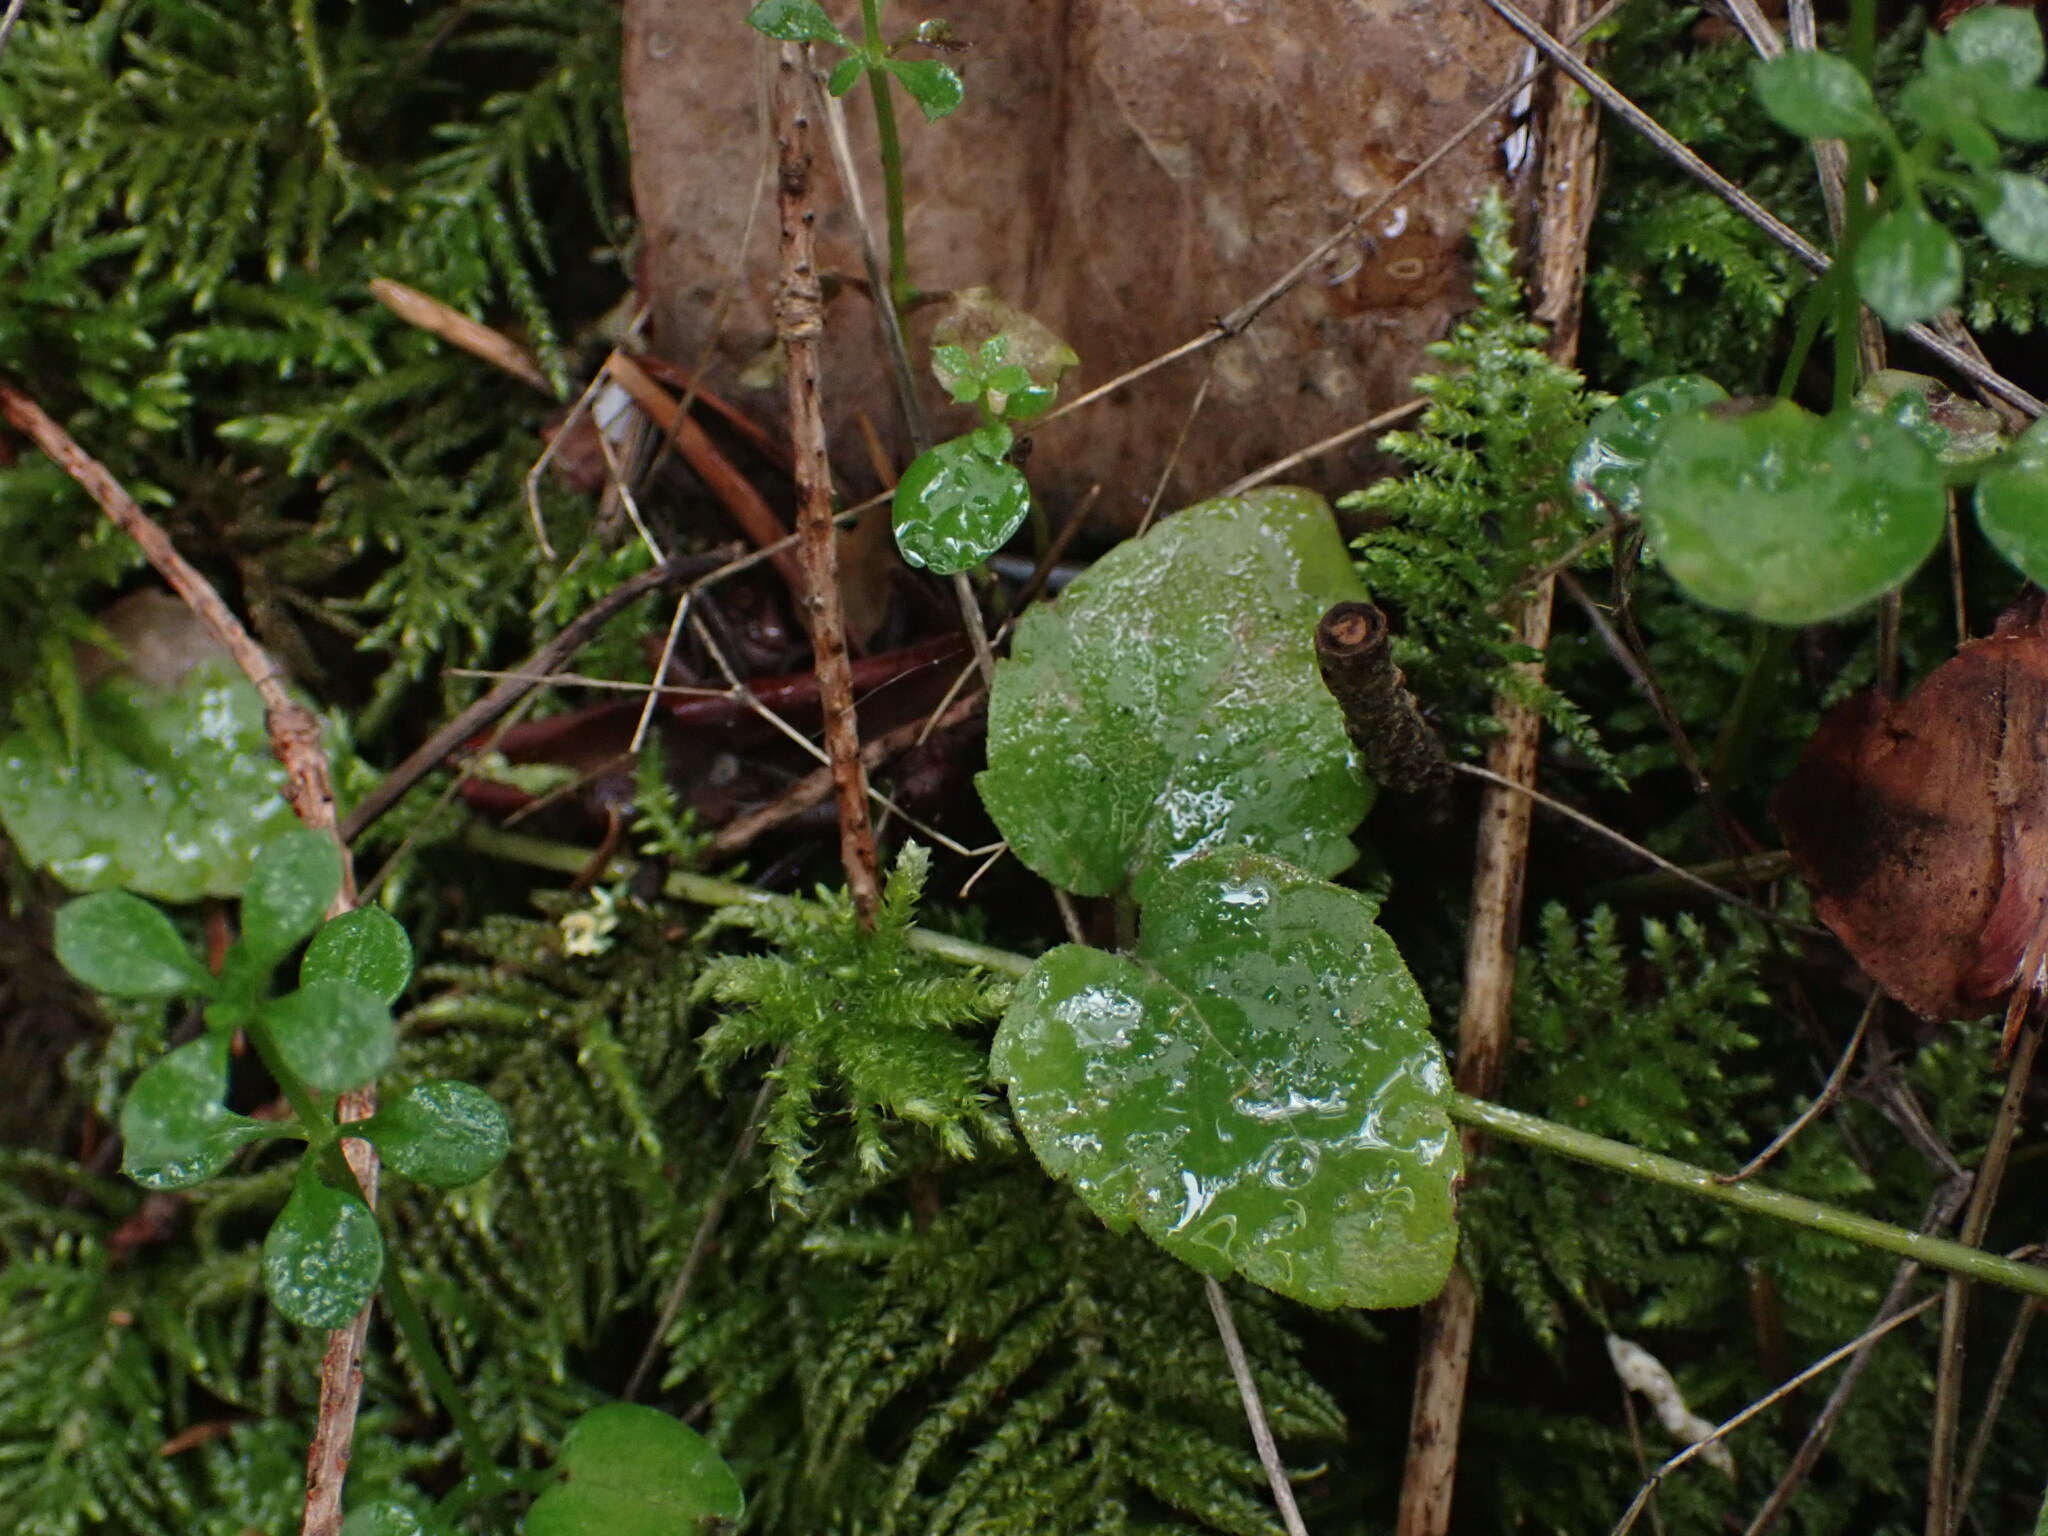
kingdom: Plantae
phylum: Tracheophyta
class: Magnoliopsida
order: Lamiales
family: Lamiaceae
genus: Micromeria
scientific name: Micromeria douglasii
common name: Yerba buena
